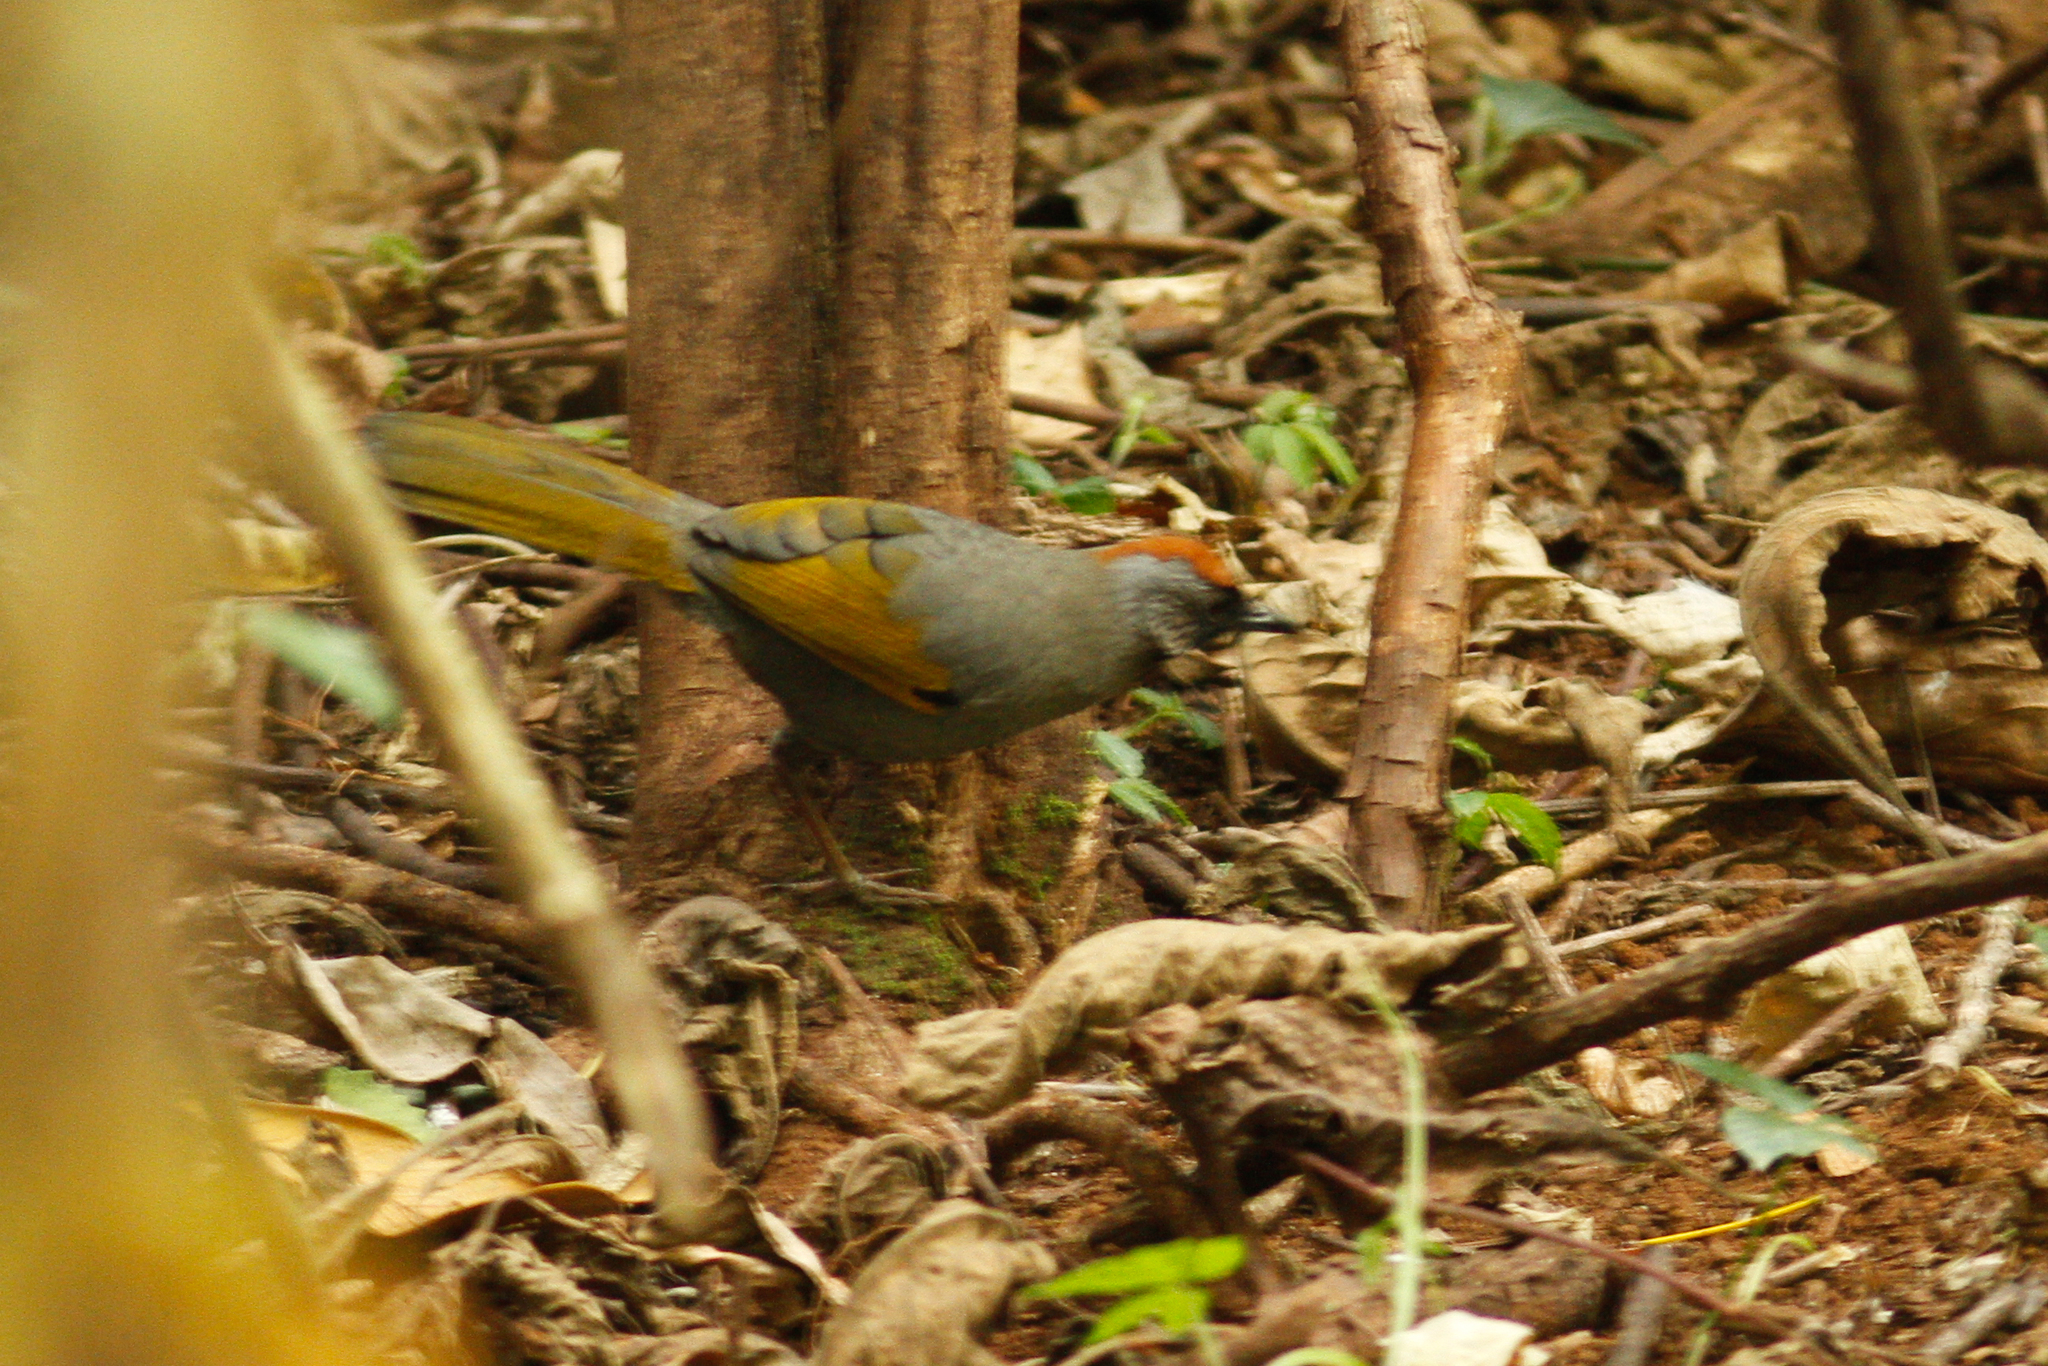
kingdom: Animalia
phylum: Chordata
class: Aves
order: Passeriformes
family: Leiothrichidae
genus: Trochalopteron
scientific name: Trochalopteron melanostigma
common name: Silver-eared laughingthrush
